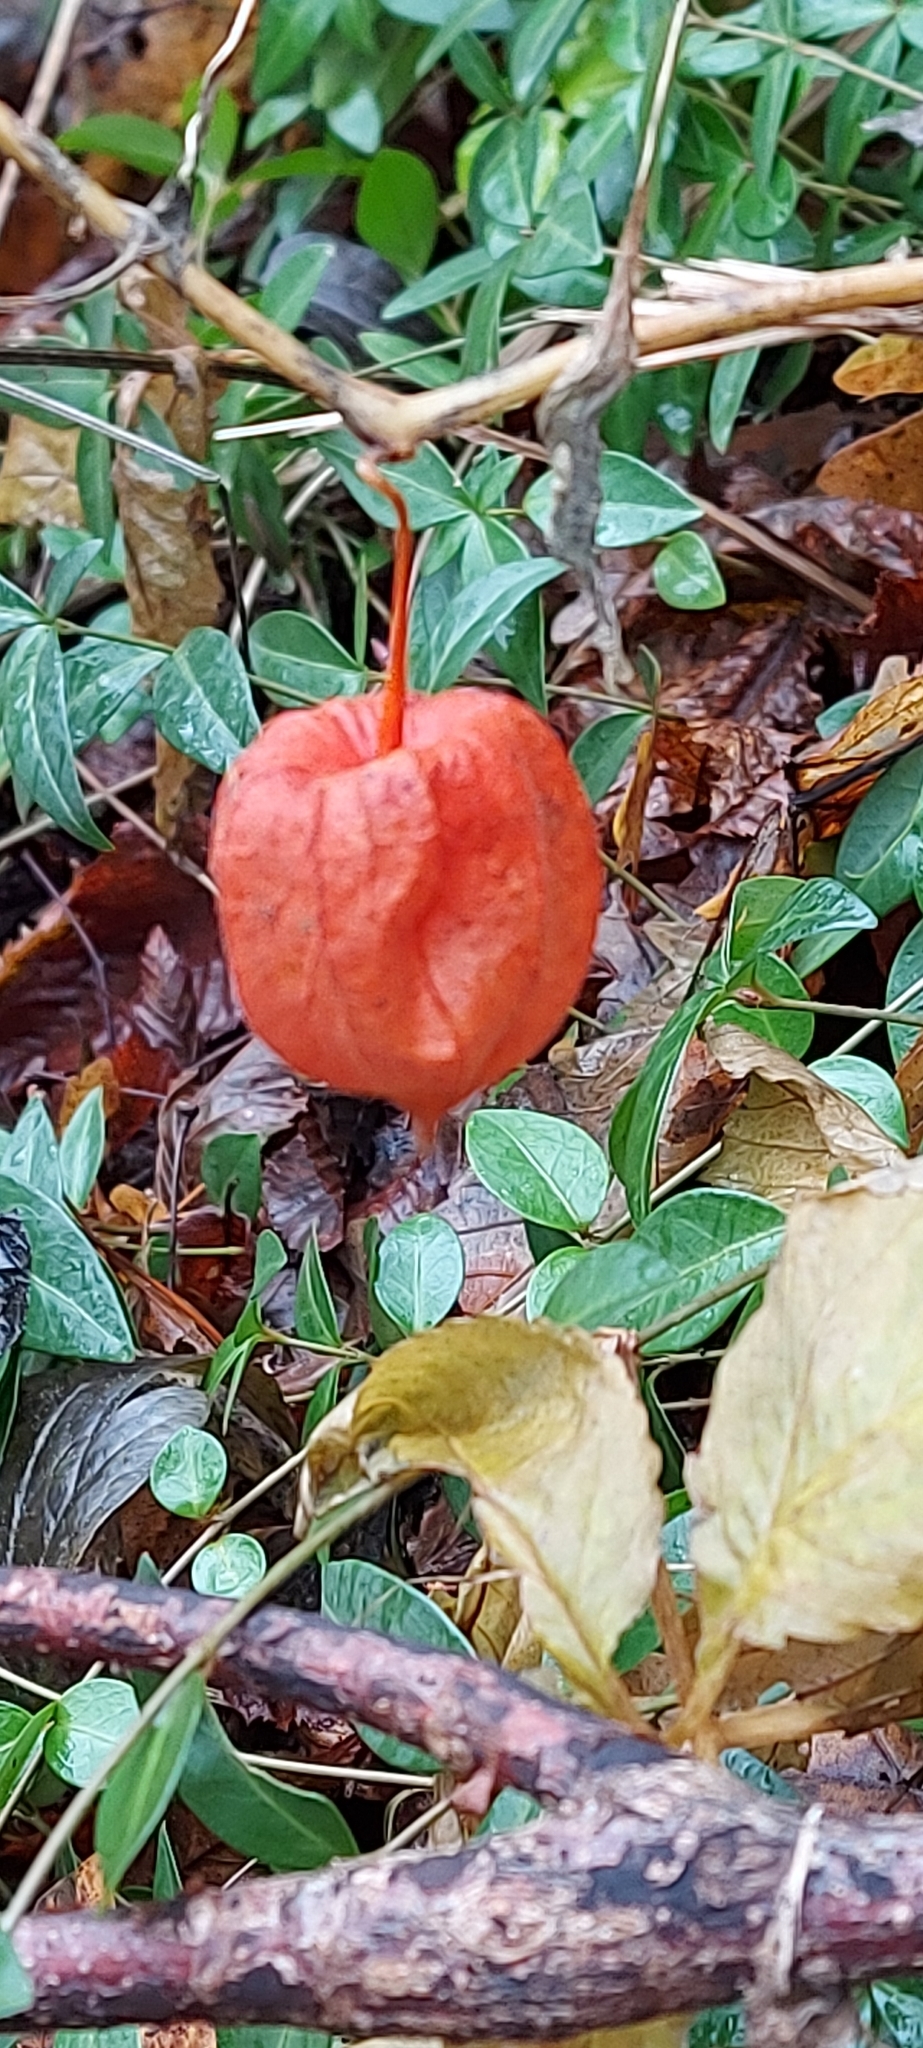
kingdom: Plantae
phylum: Tracheophyta
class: Magnoliopsida
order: Solanales
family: Solanaceae
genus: Alkekengi
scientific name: Alkekengi officinarum
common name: Japanese-lantern
